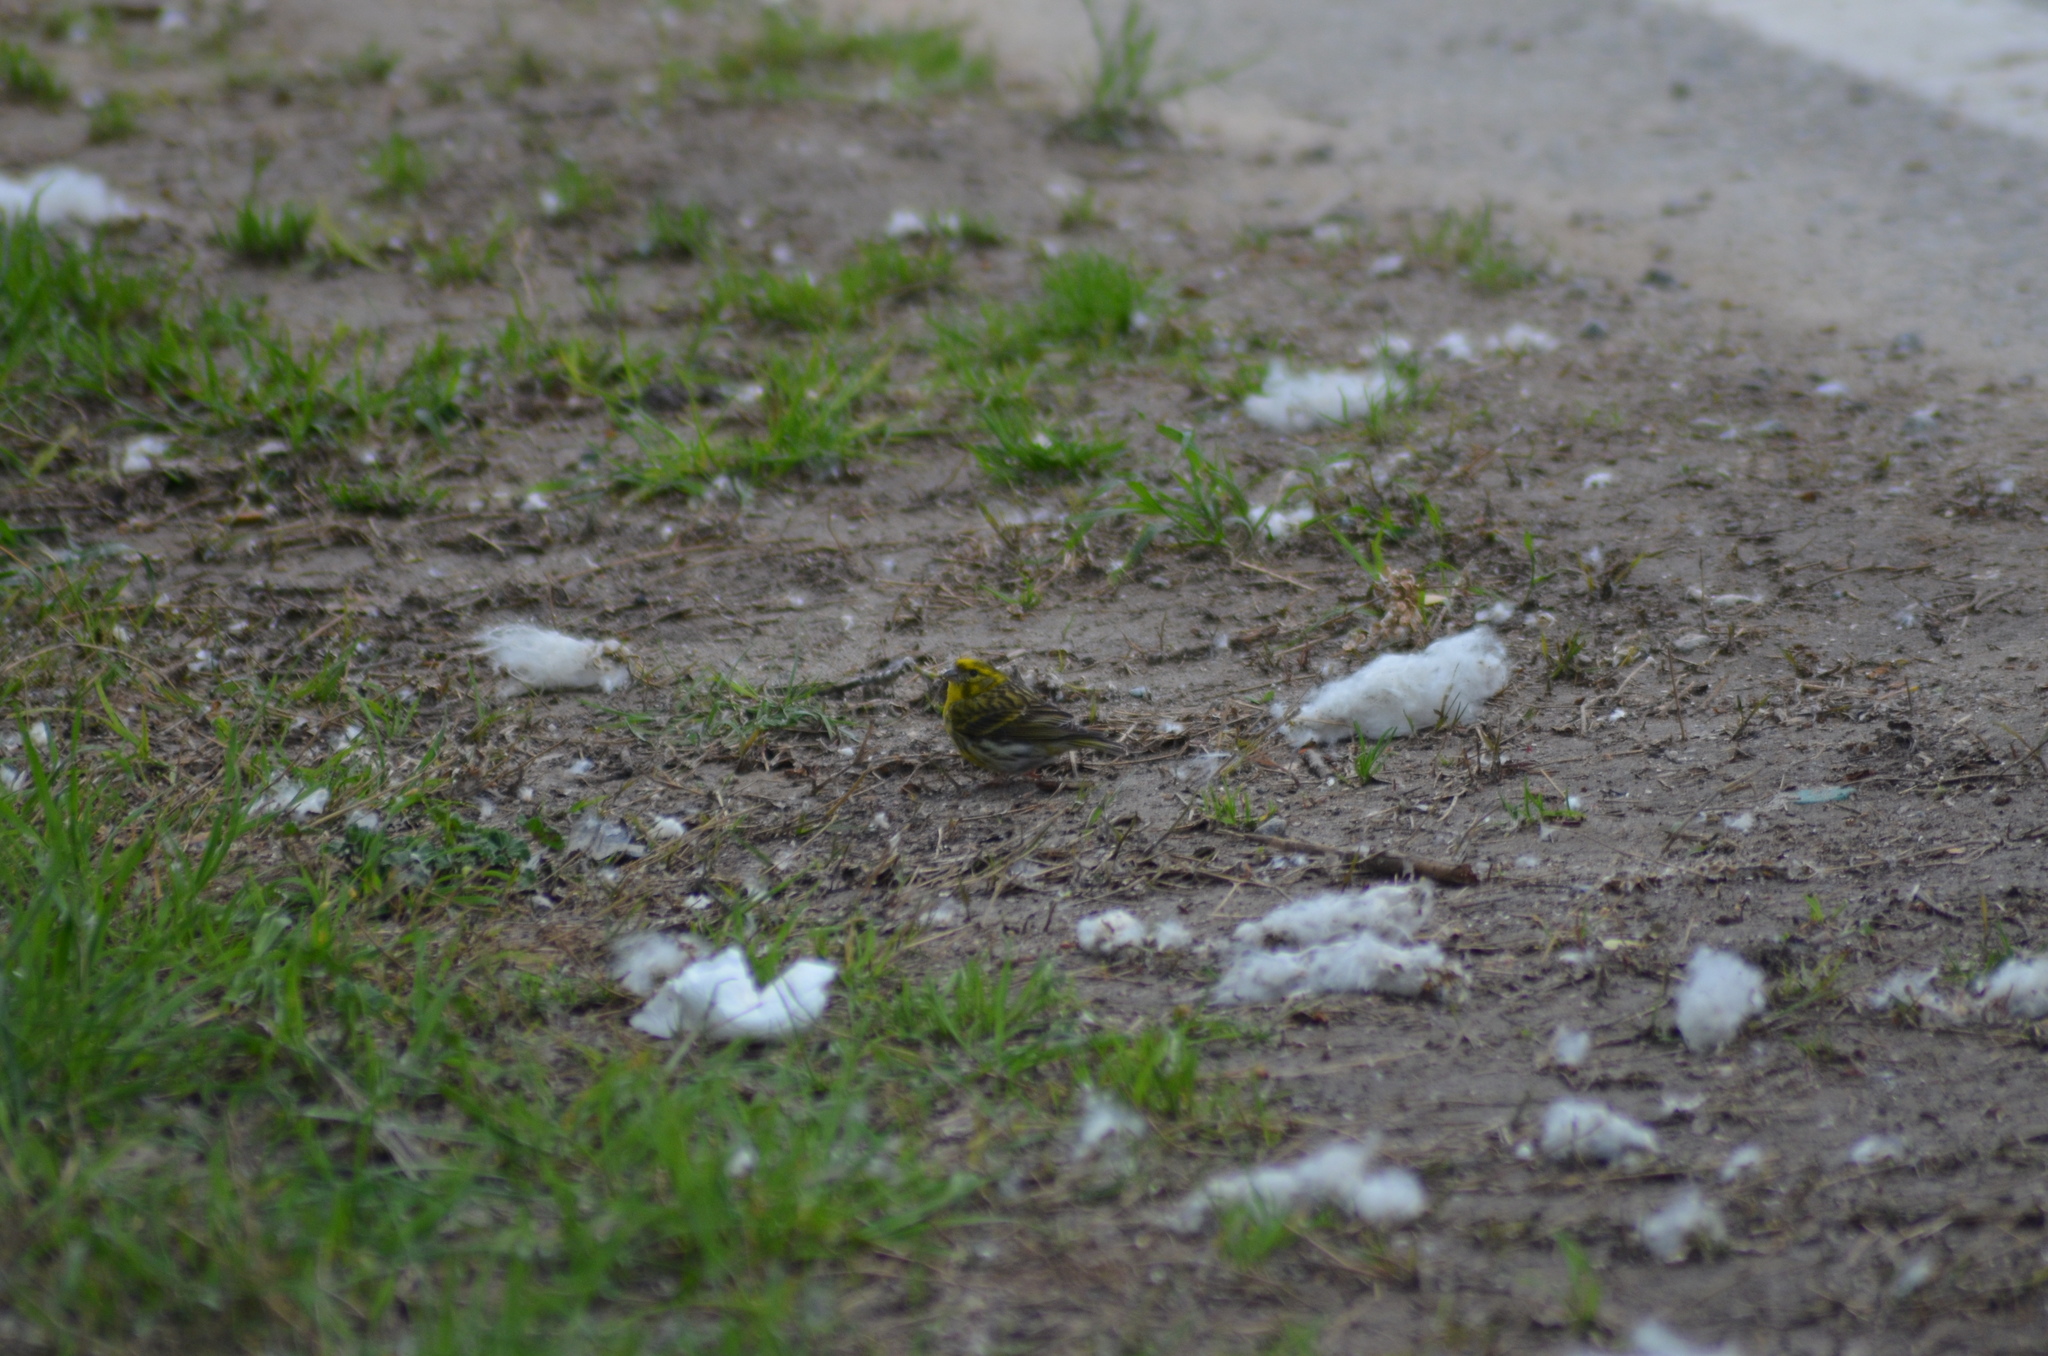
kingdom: Animalia
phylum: Chordata
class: Aves
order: Passeriformes
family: Fringillidae
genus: Serinus
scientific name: Serinus serinus
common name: European serin
